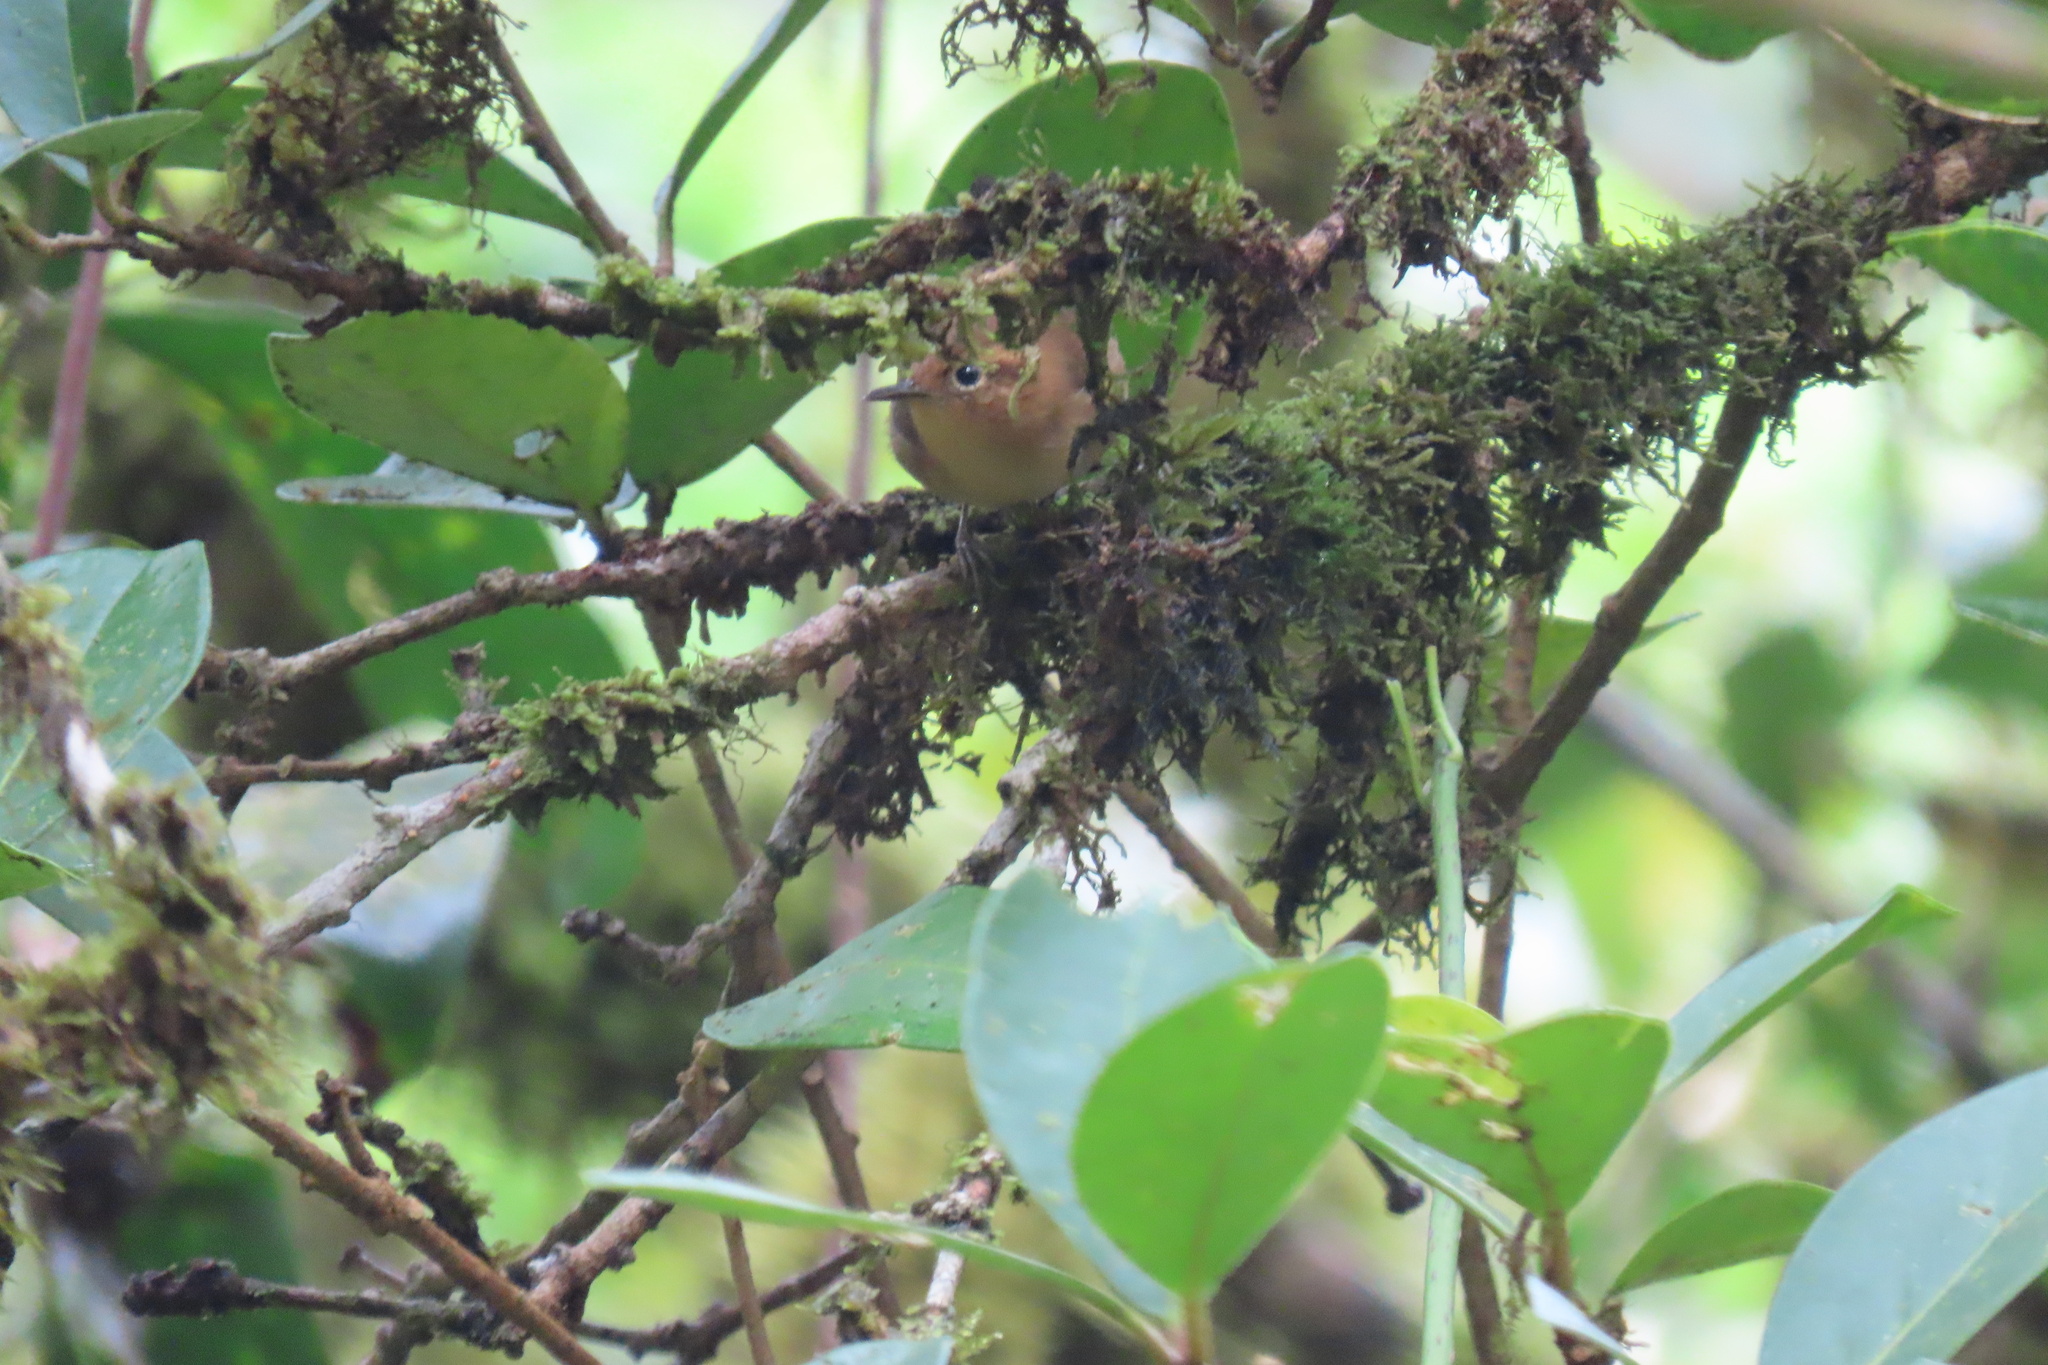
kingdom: Animalia
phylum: Chordata
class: Aves
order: Passeriformes
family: Troglodytidae
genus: Troglodytes
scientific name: Troglodytes ochraceus
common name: Ochraceous wren
